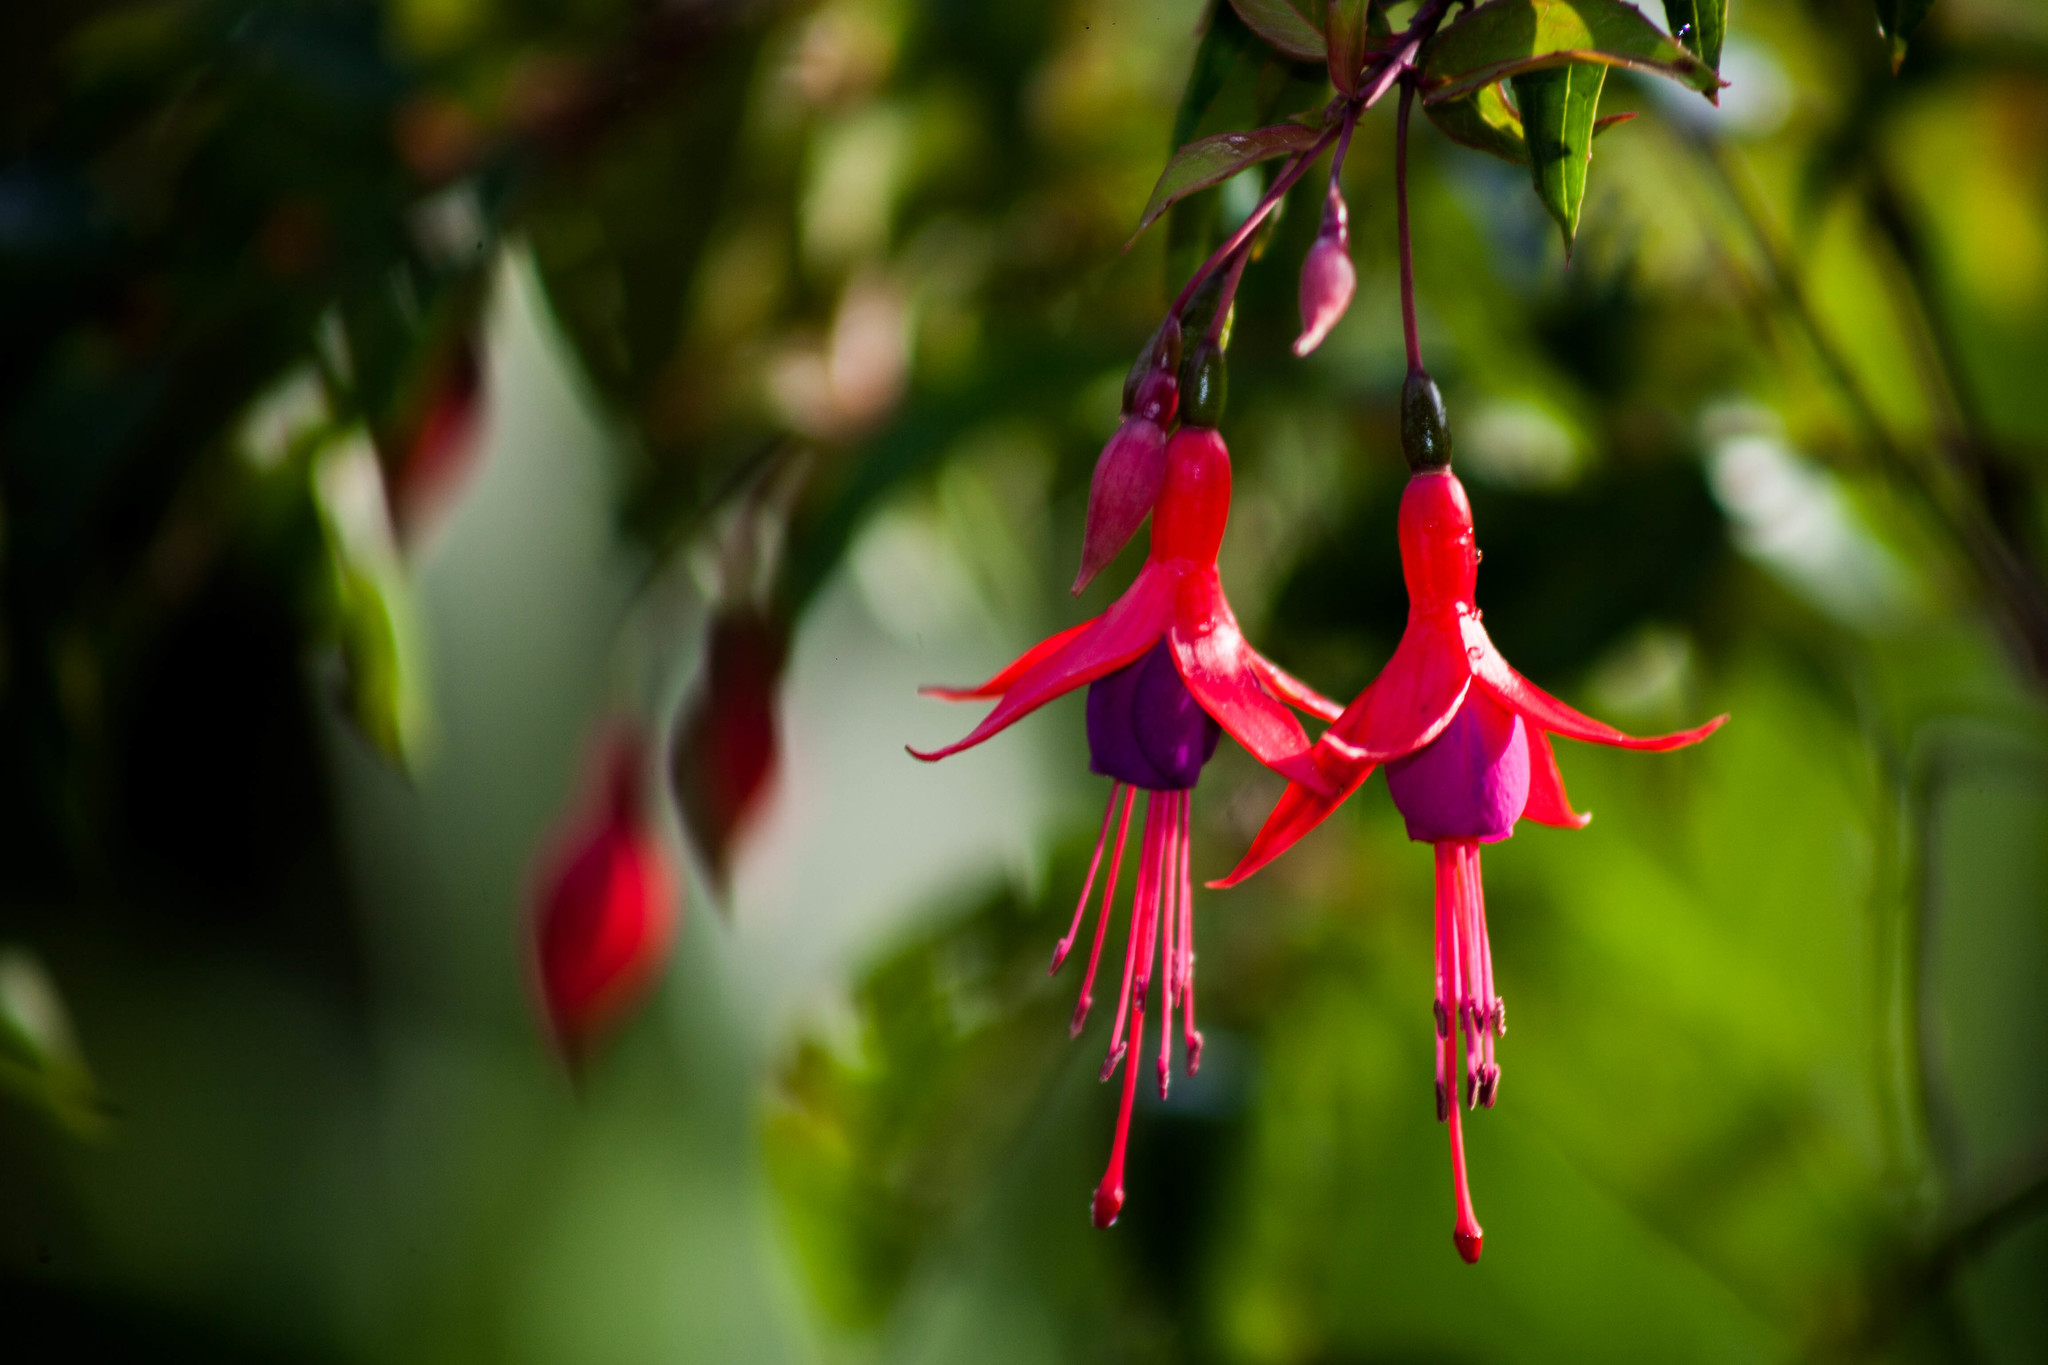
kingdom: Plantae
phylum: Tracheophyta
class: Magnoliopsida
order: Myrtales
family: Onagraceae
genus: Fuchsia
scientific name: Fuchsia regia
